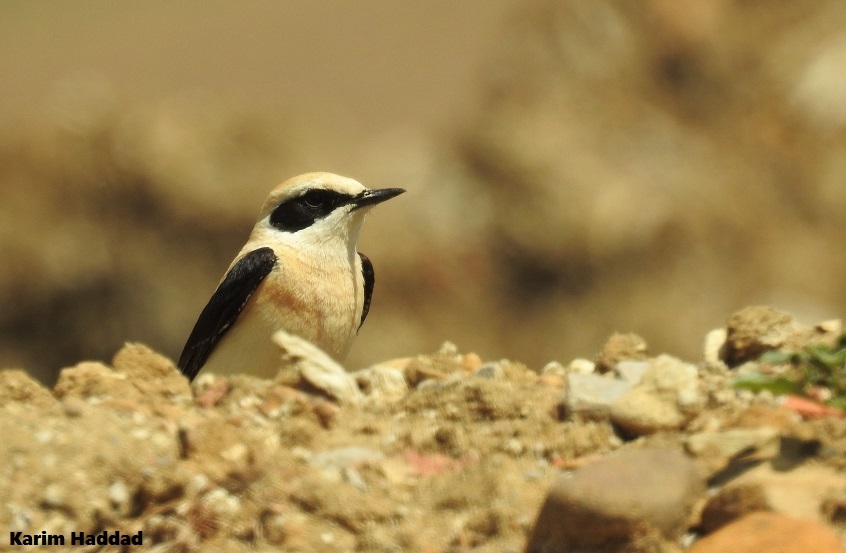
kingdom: Animalia
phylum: Chordata
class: Aves
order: Passeriformes
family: Muscicapidae
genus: Oenanthe
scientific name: Oenanthe hispanica
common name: Black-eared wheatear
